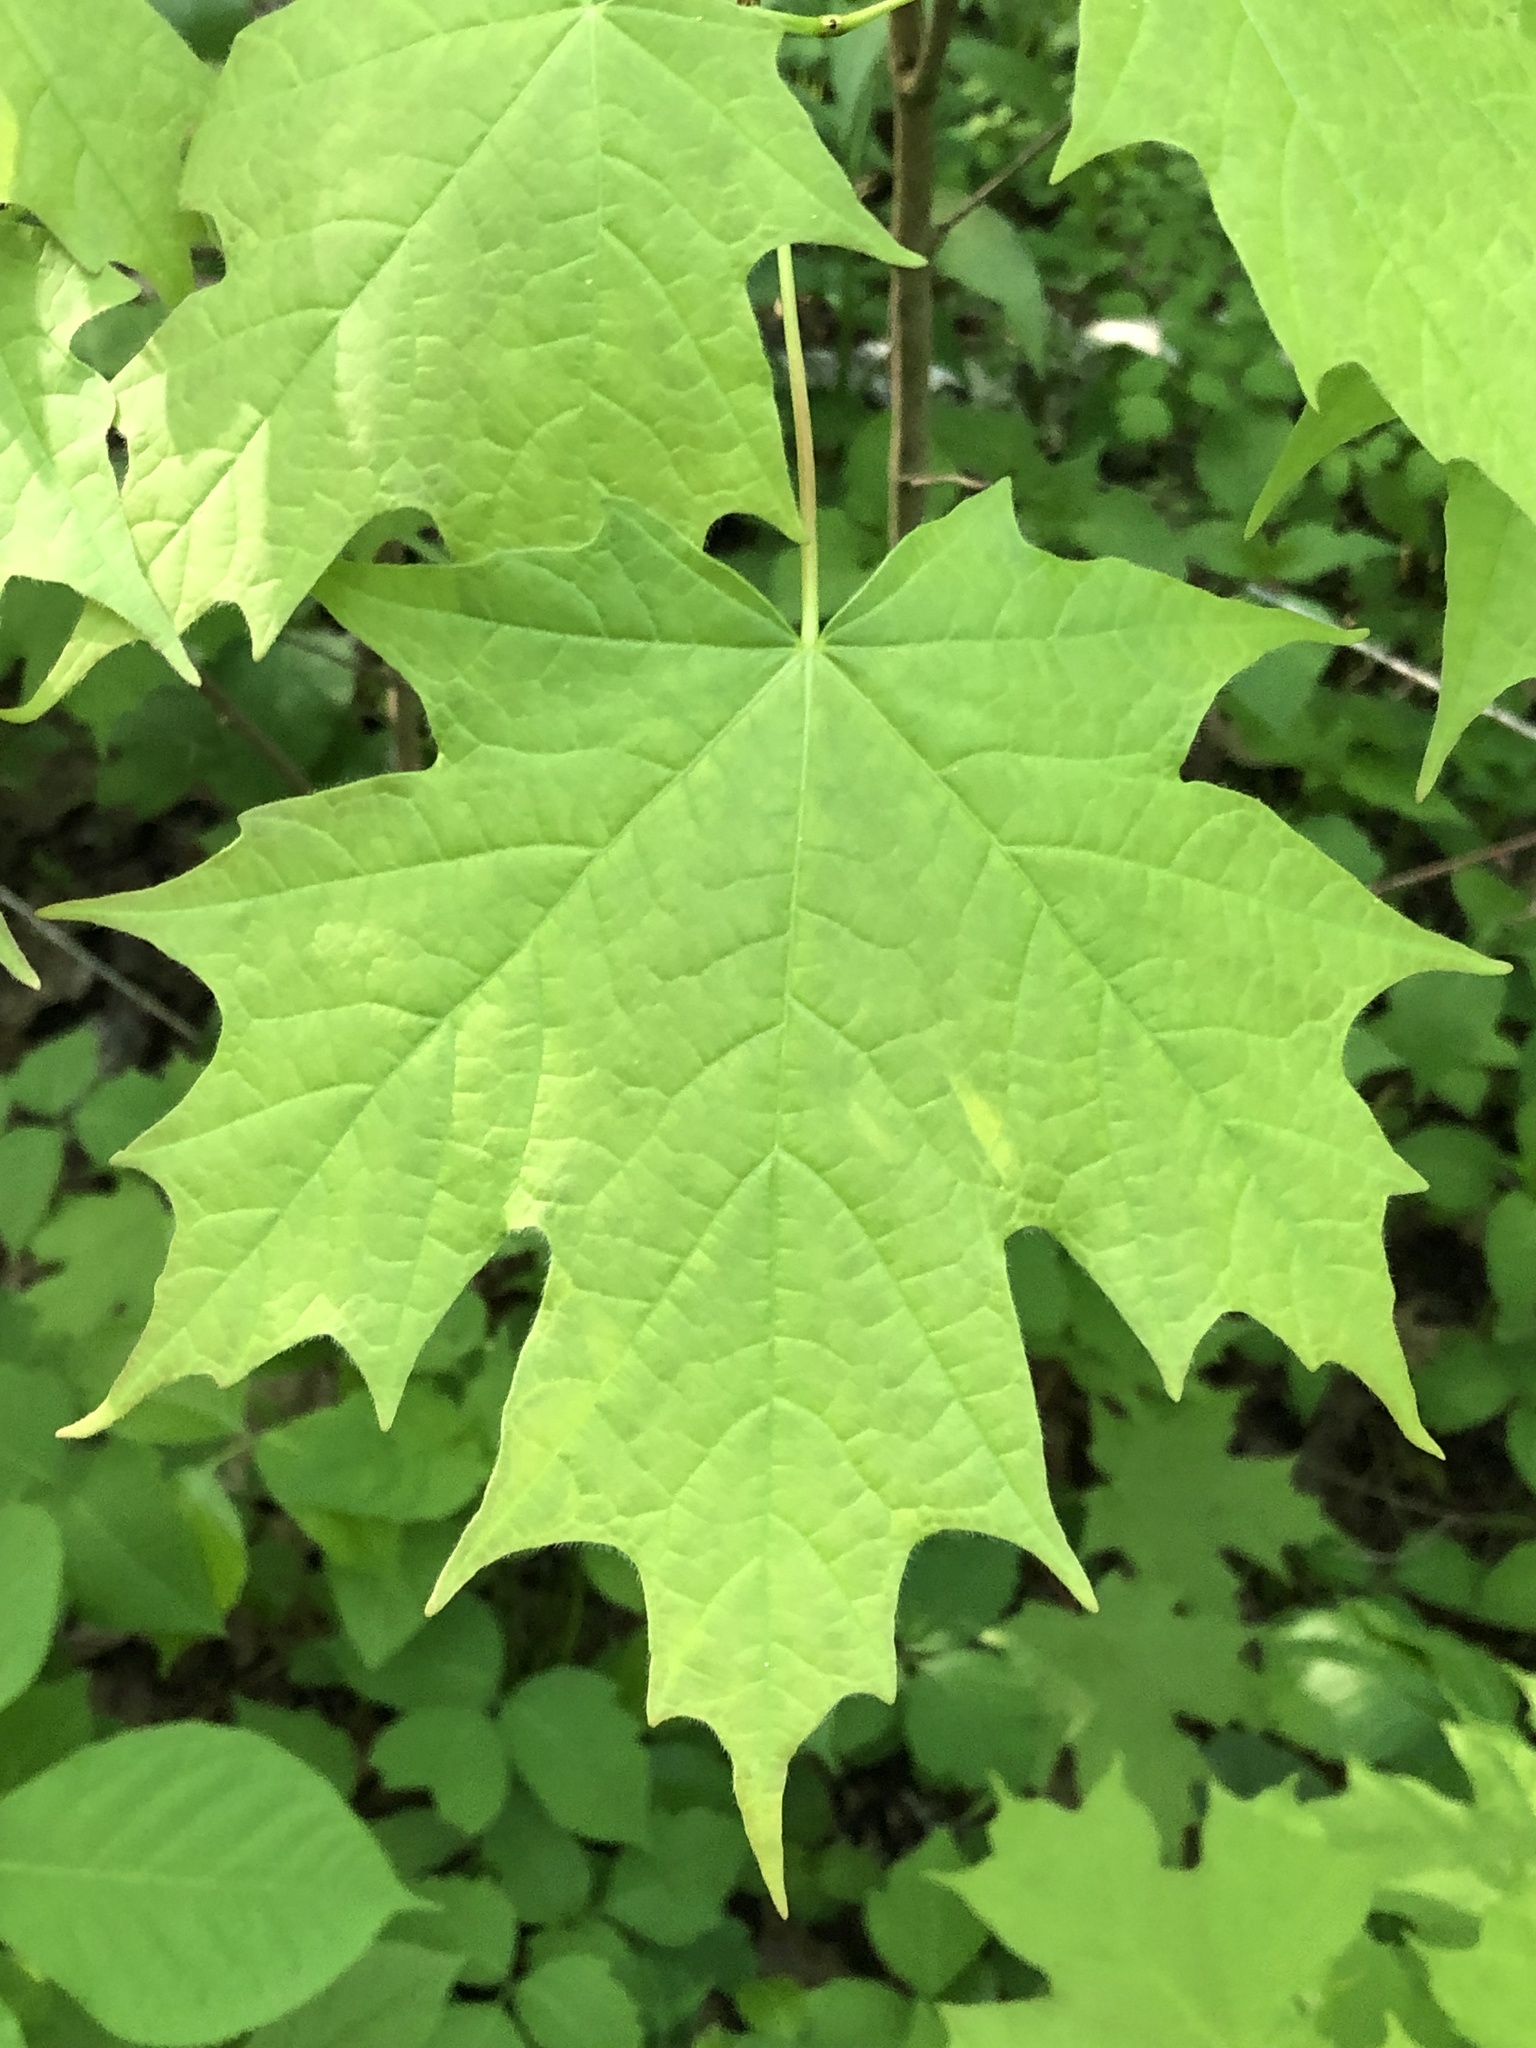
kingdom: Plantae
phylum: Tracheophyta
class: Magnoliopsida
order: Sapindales
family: Sapindaceae
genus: Acer
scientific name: Acer saccharum
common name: Sugar maple
